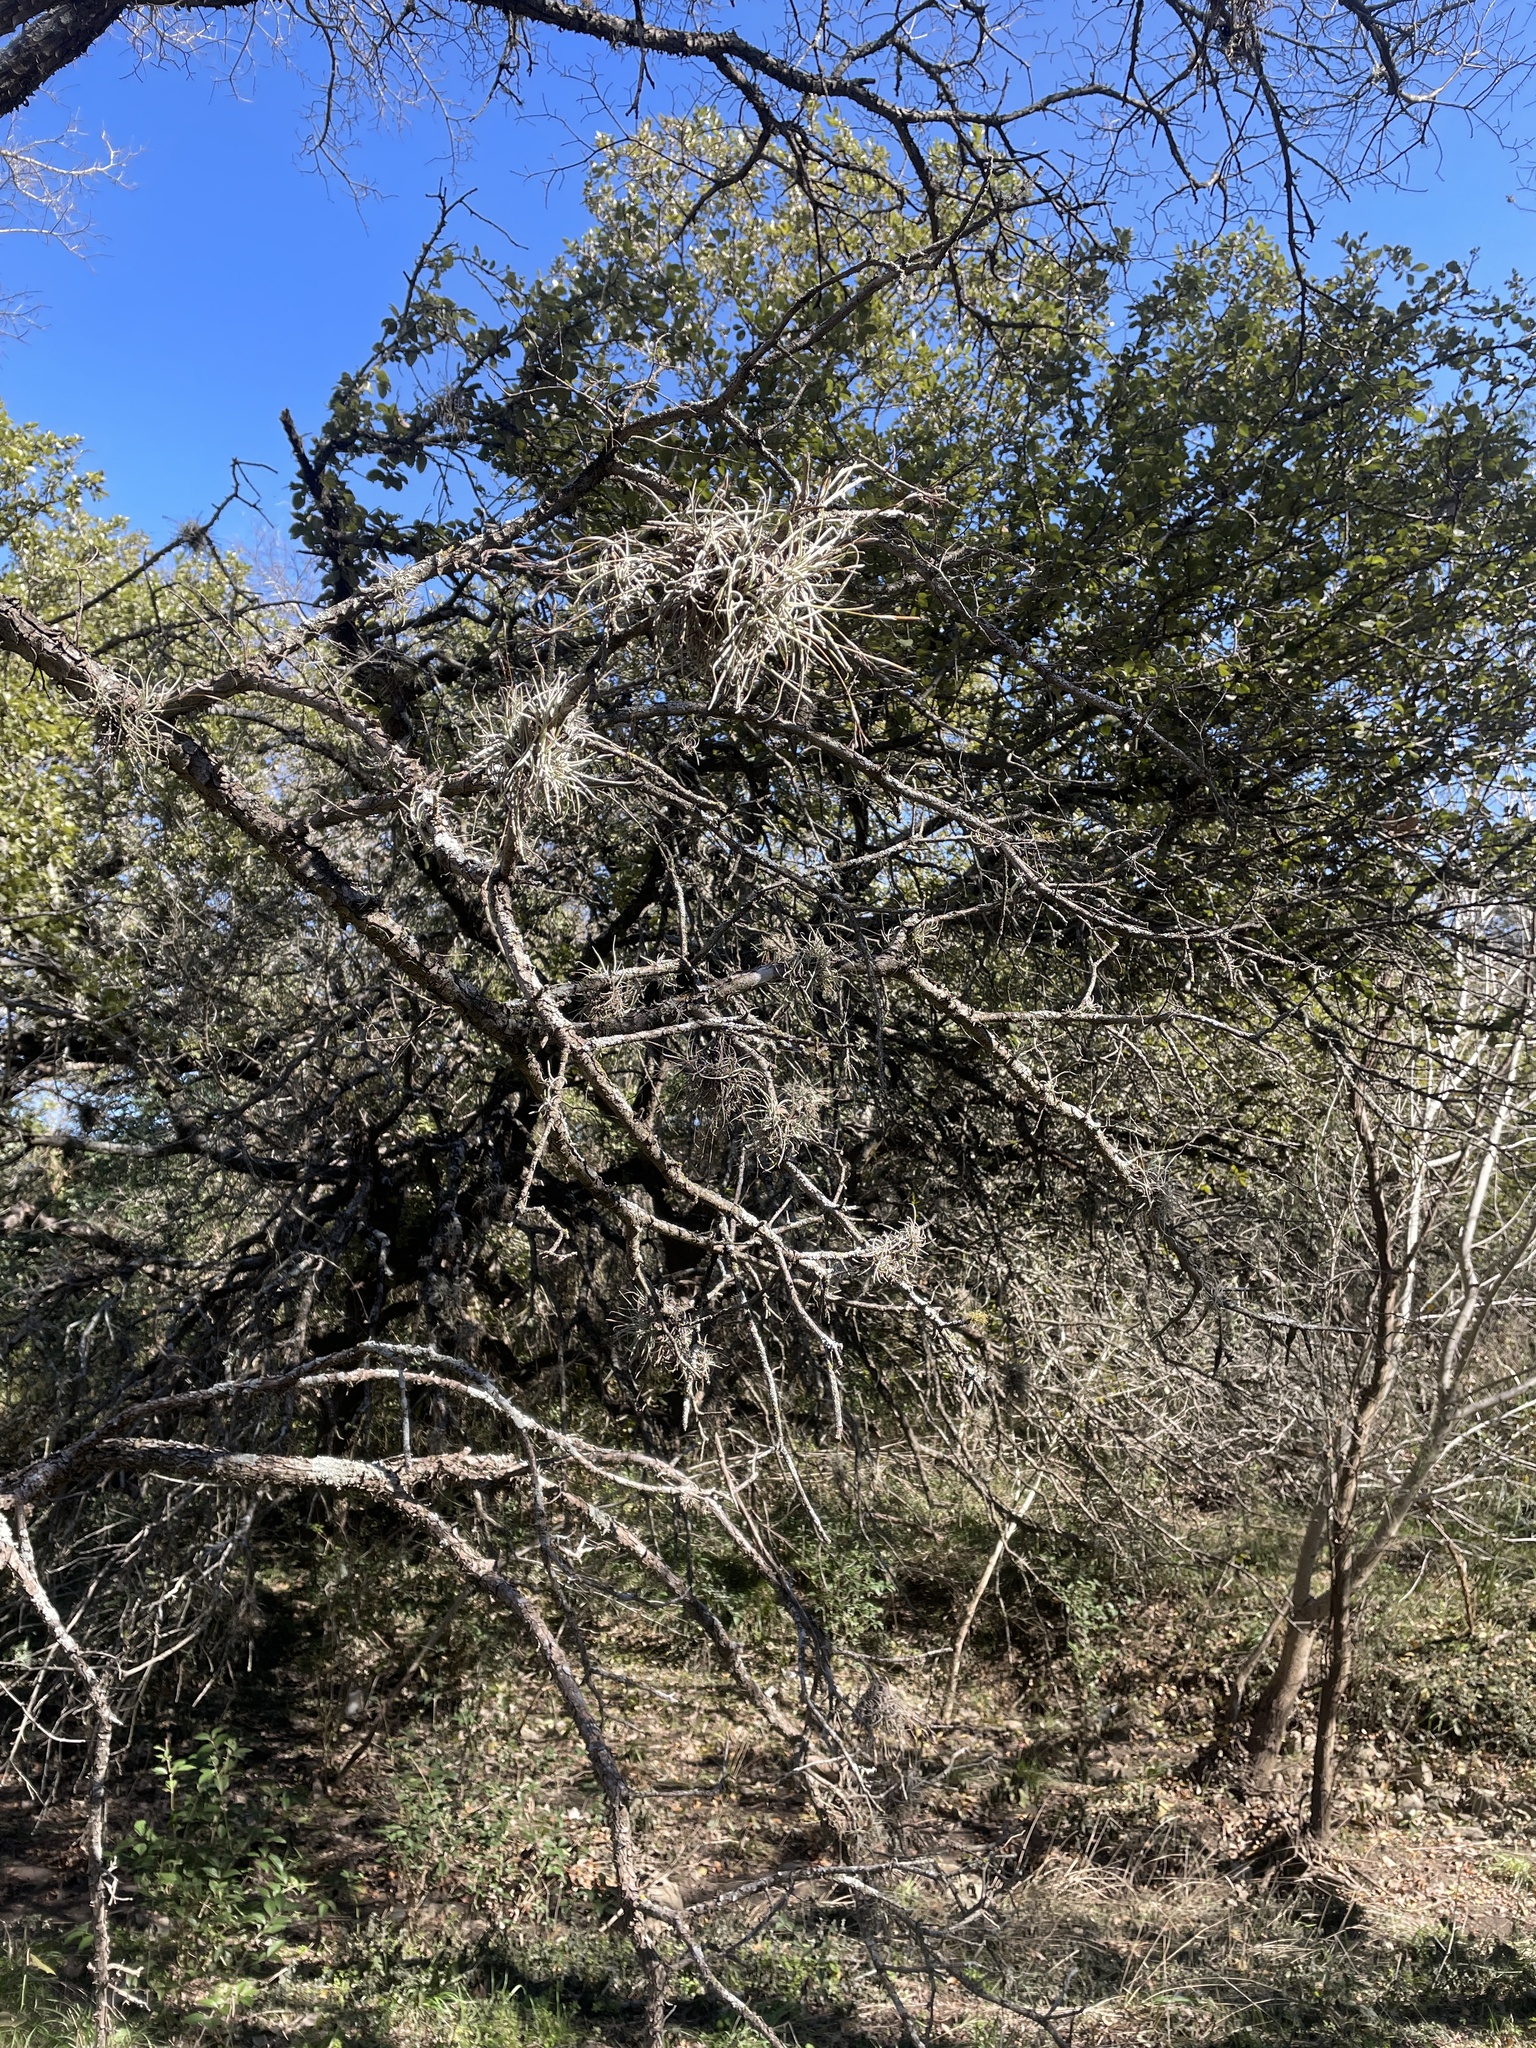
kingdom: Plantae
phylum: Tracheophyta
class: Liliopsida
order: Poales
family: Bromeliaceae
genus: Tillandsia
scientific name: Tillandsia recurvata
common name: Small ballmoss
